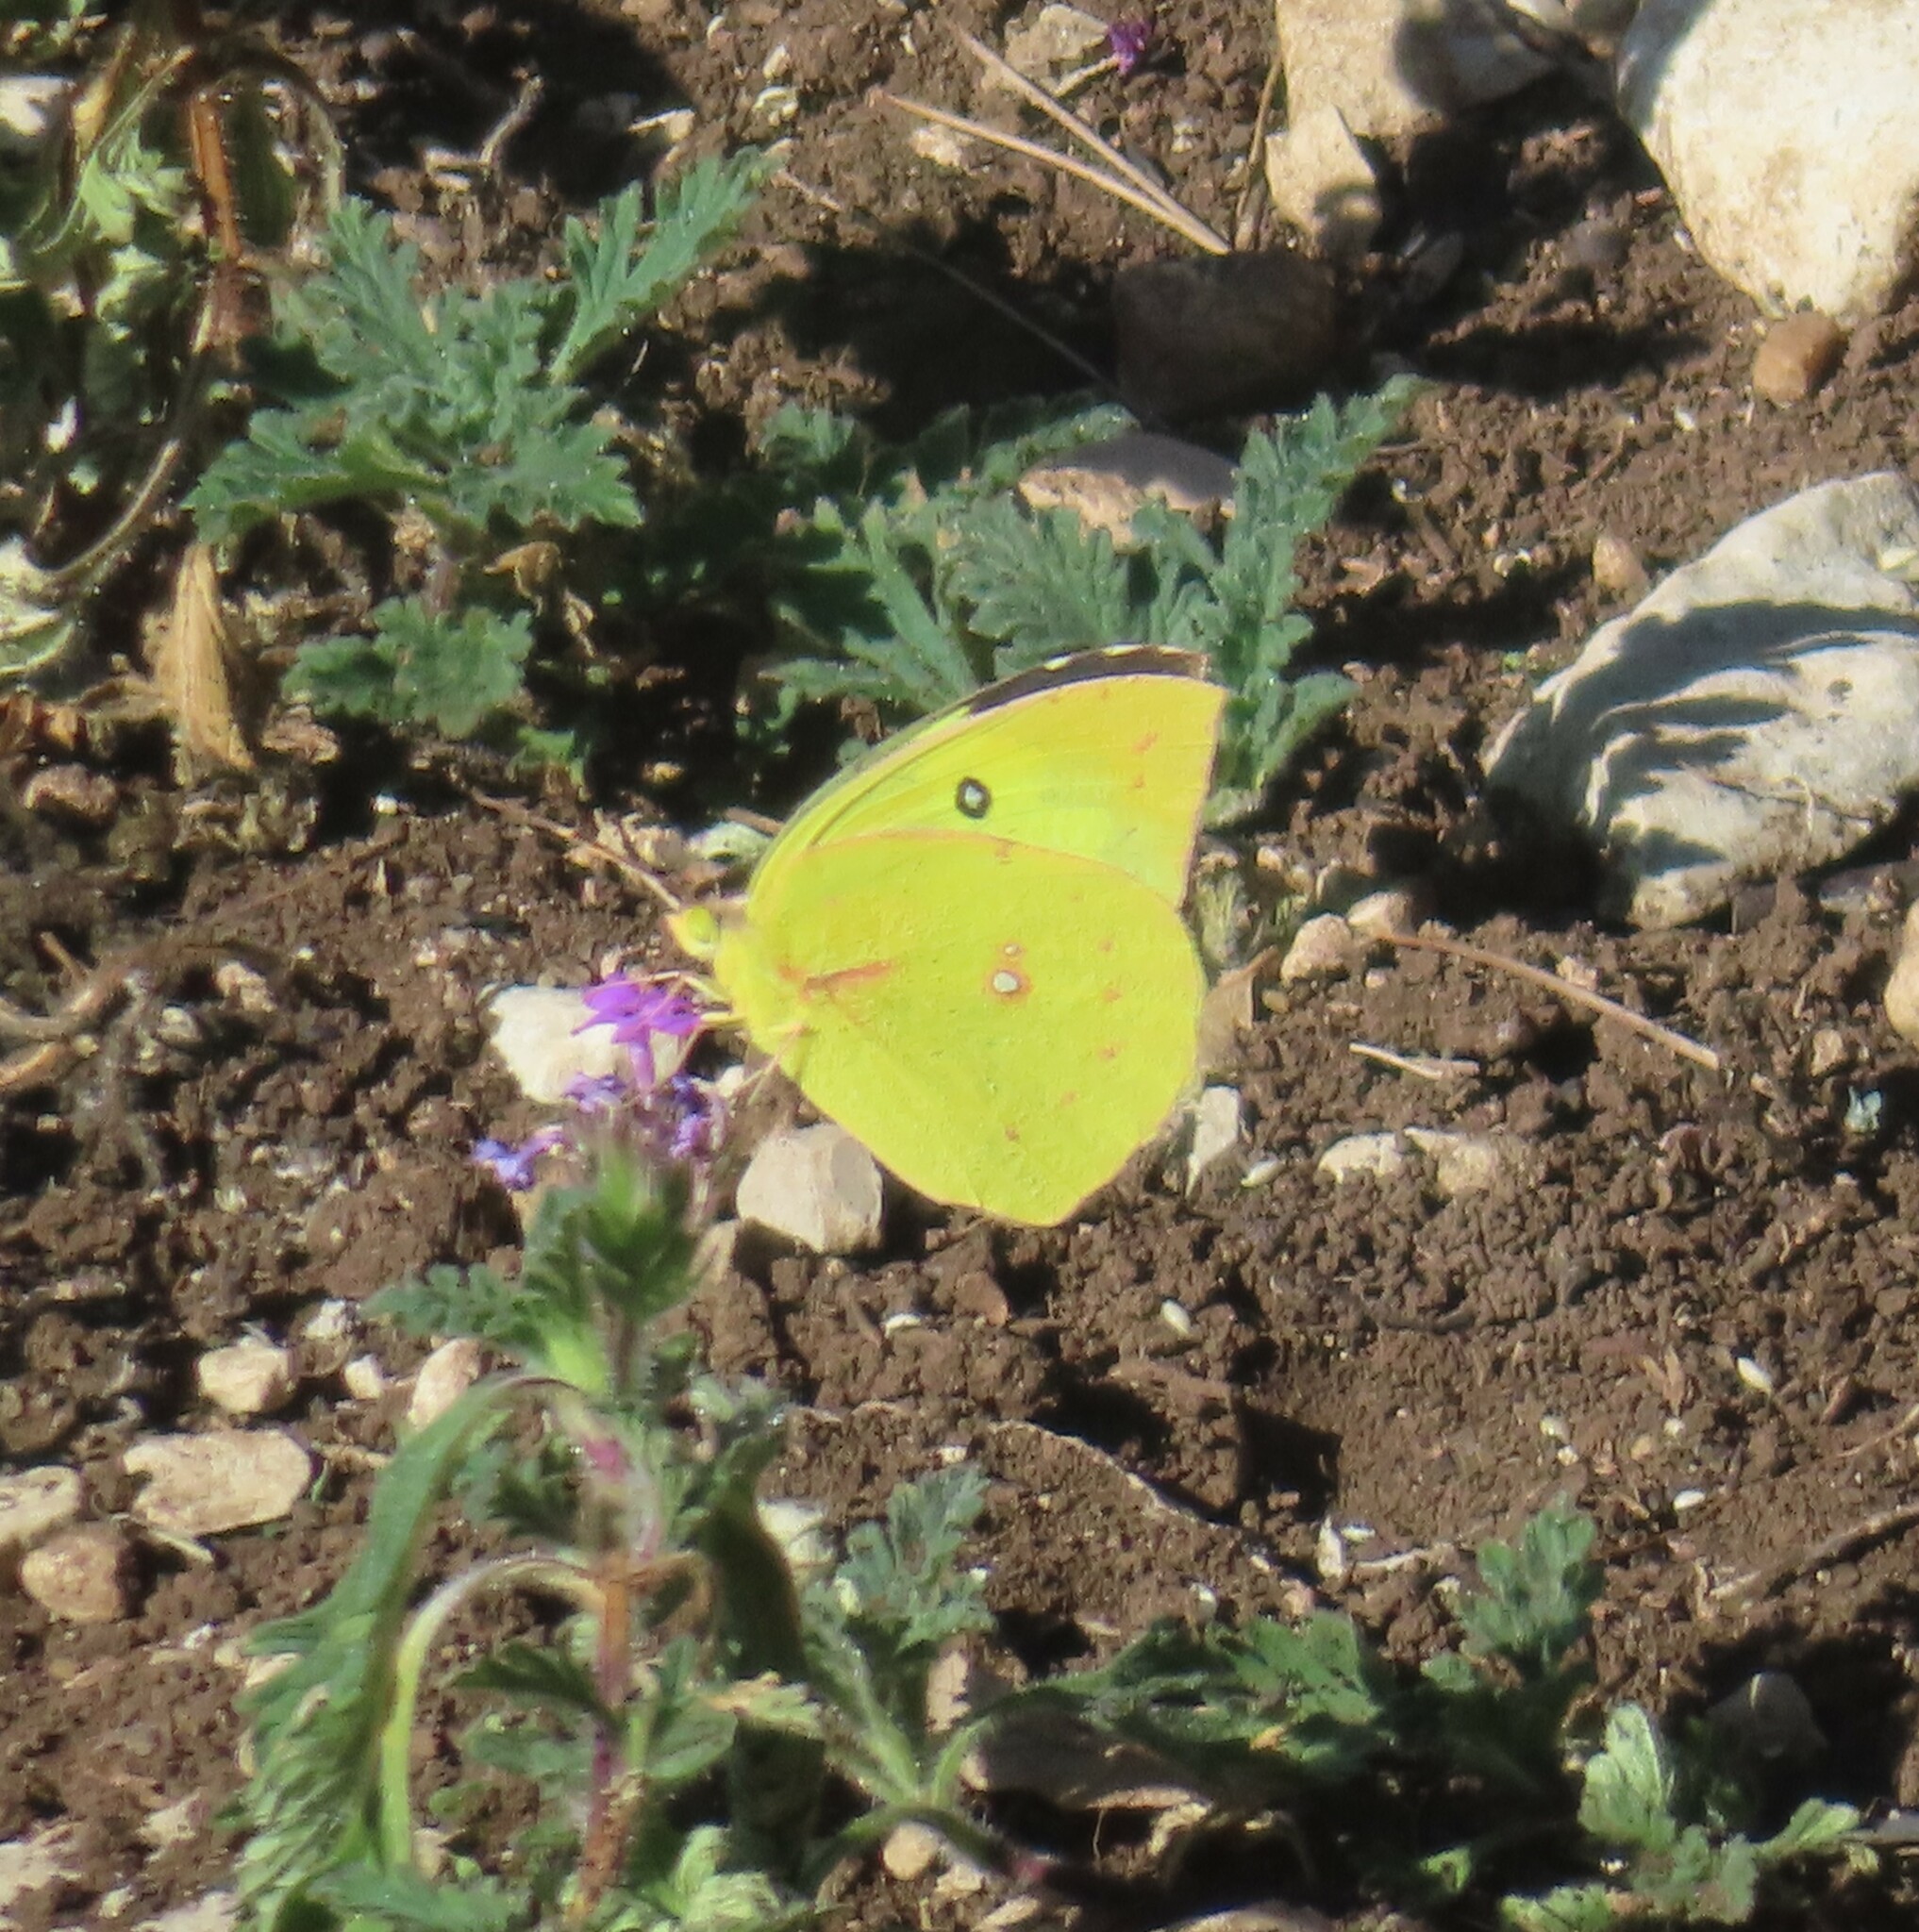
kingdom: Animalia
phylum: Arthropoda
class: Insecta
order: Lepidoptera
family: Pieridae
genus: Zerene
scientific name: Zerene cesonia
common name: Southern dogface
